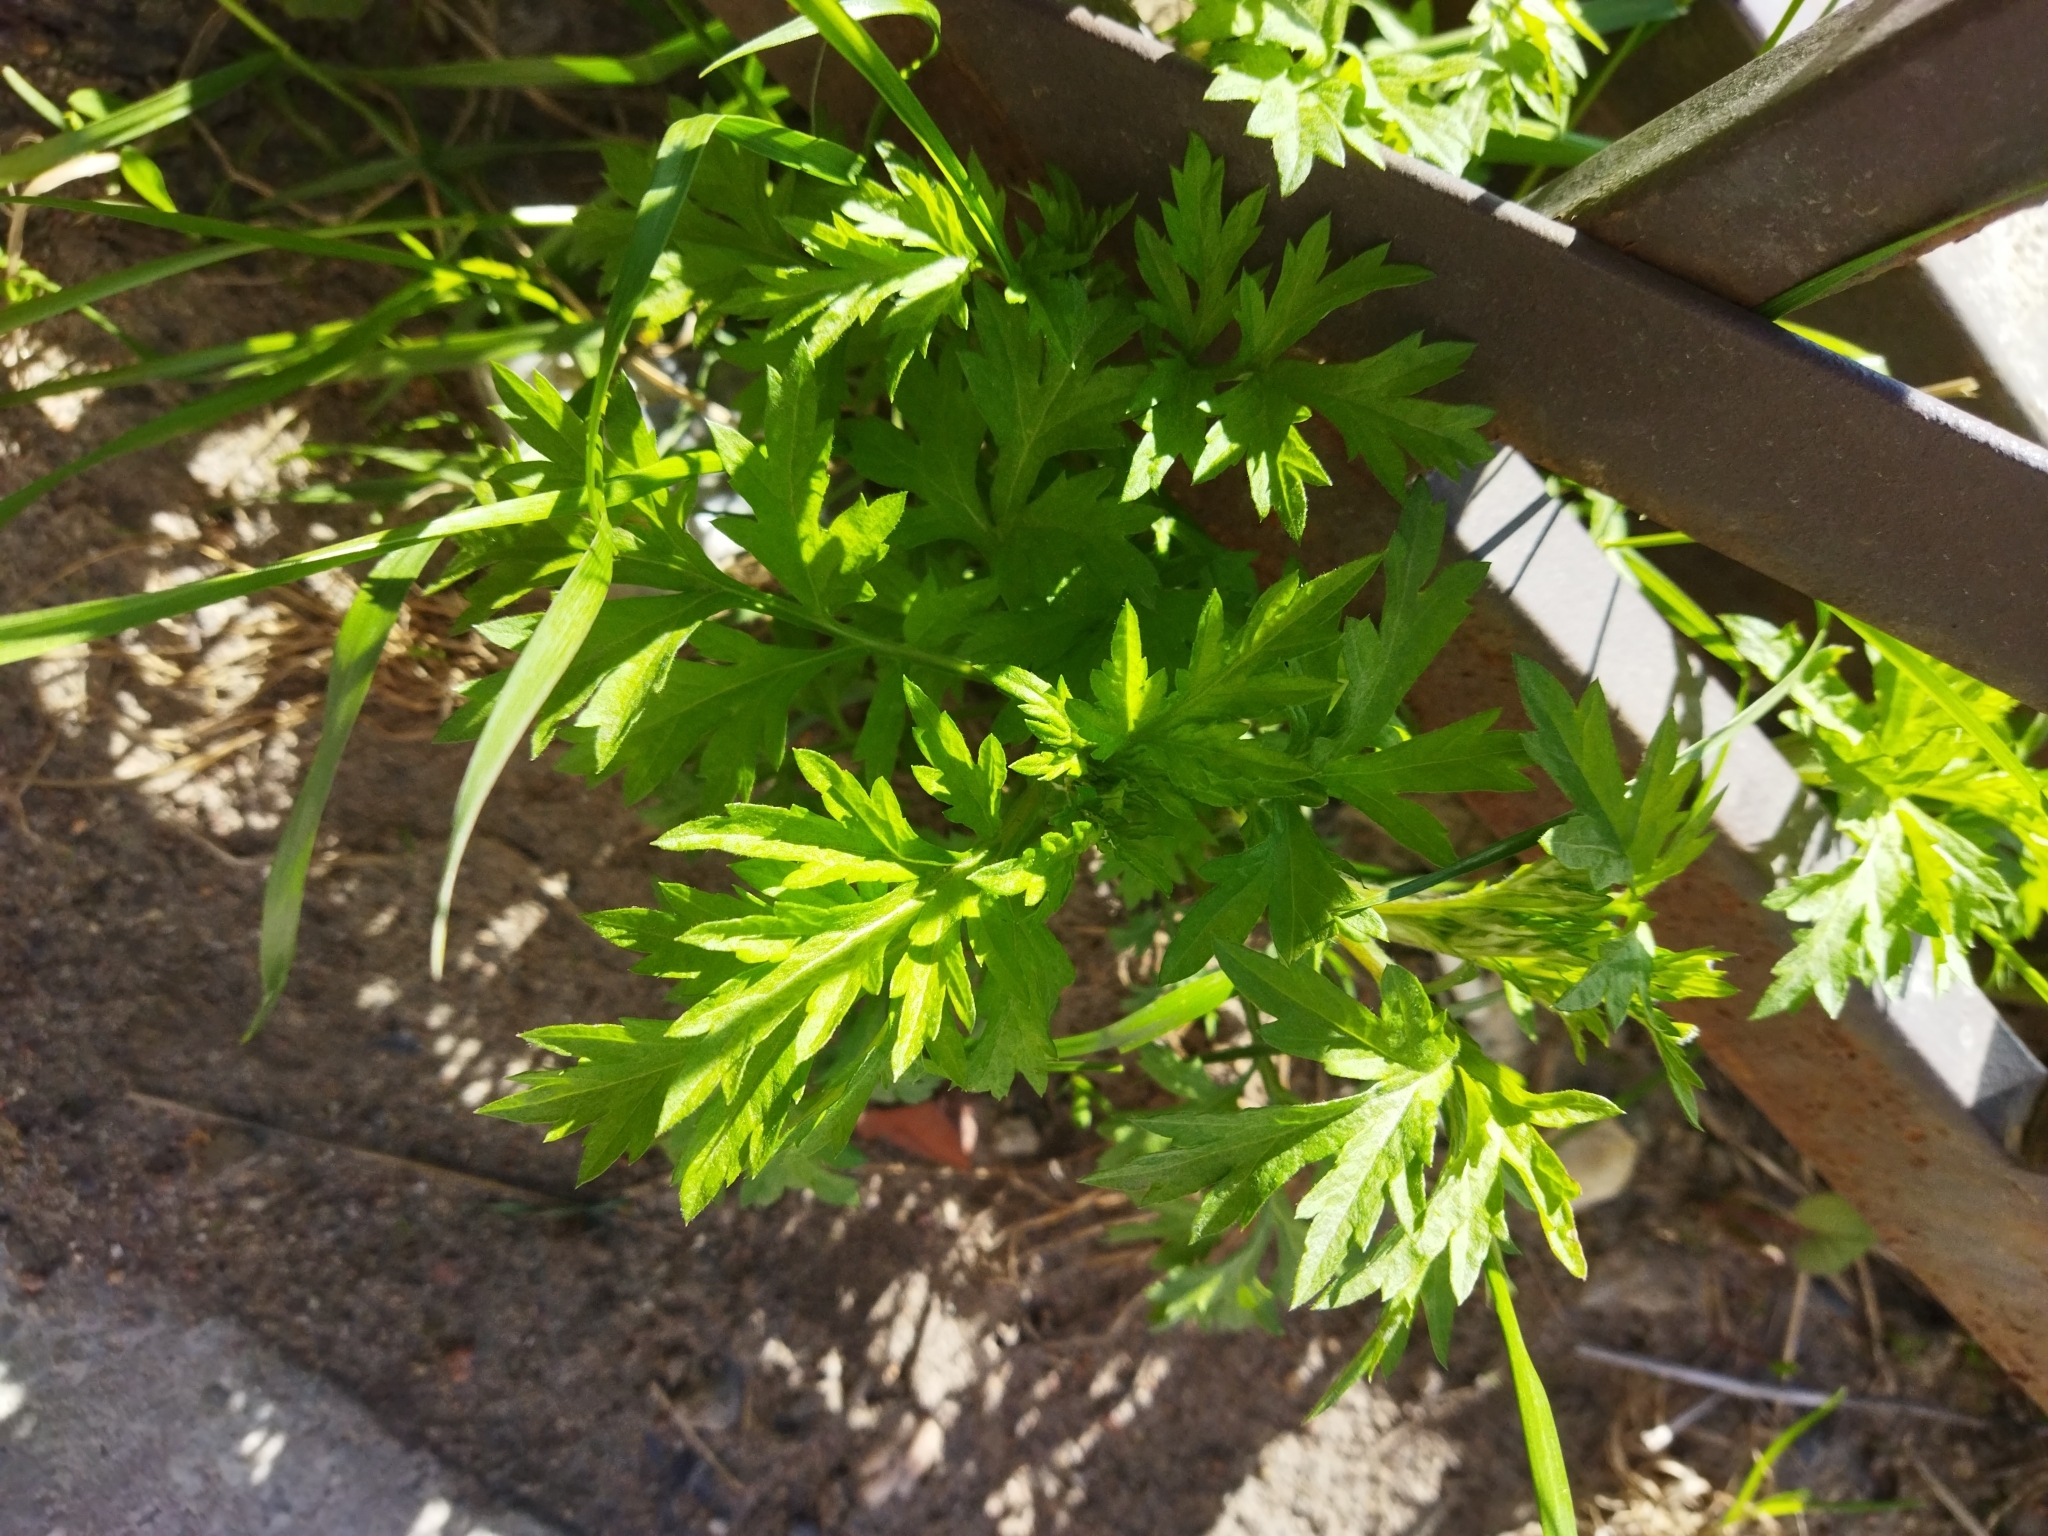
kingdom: Plantae
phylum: Tracheophyta
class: Magnoliopsida
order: Asterales
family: Asteraceae
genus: Artemisia
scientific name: Artemisia vulgaris
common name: Mugwort
